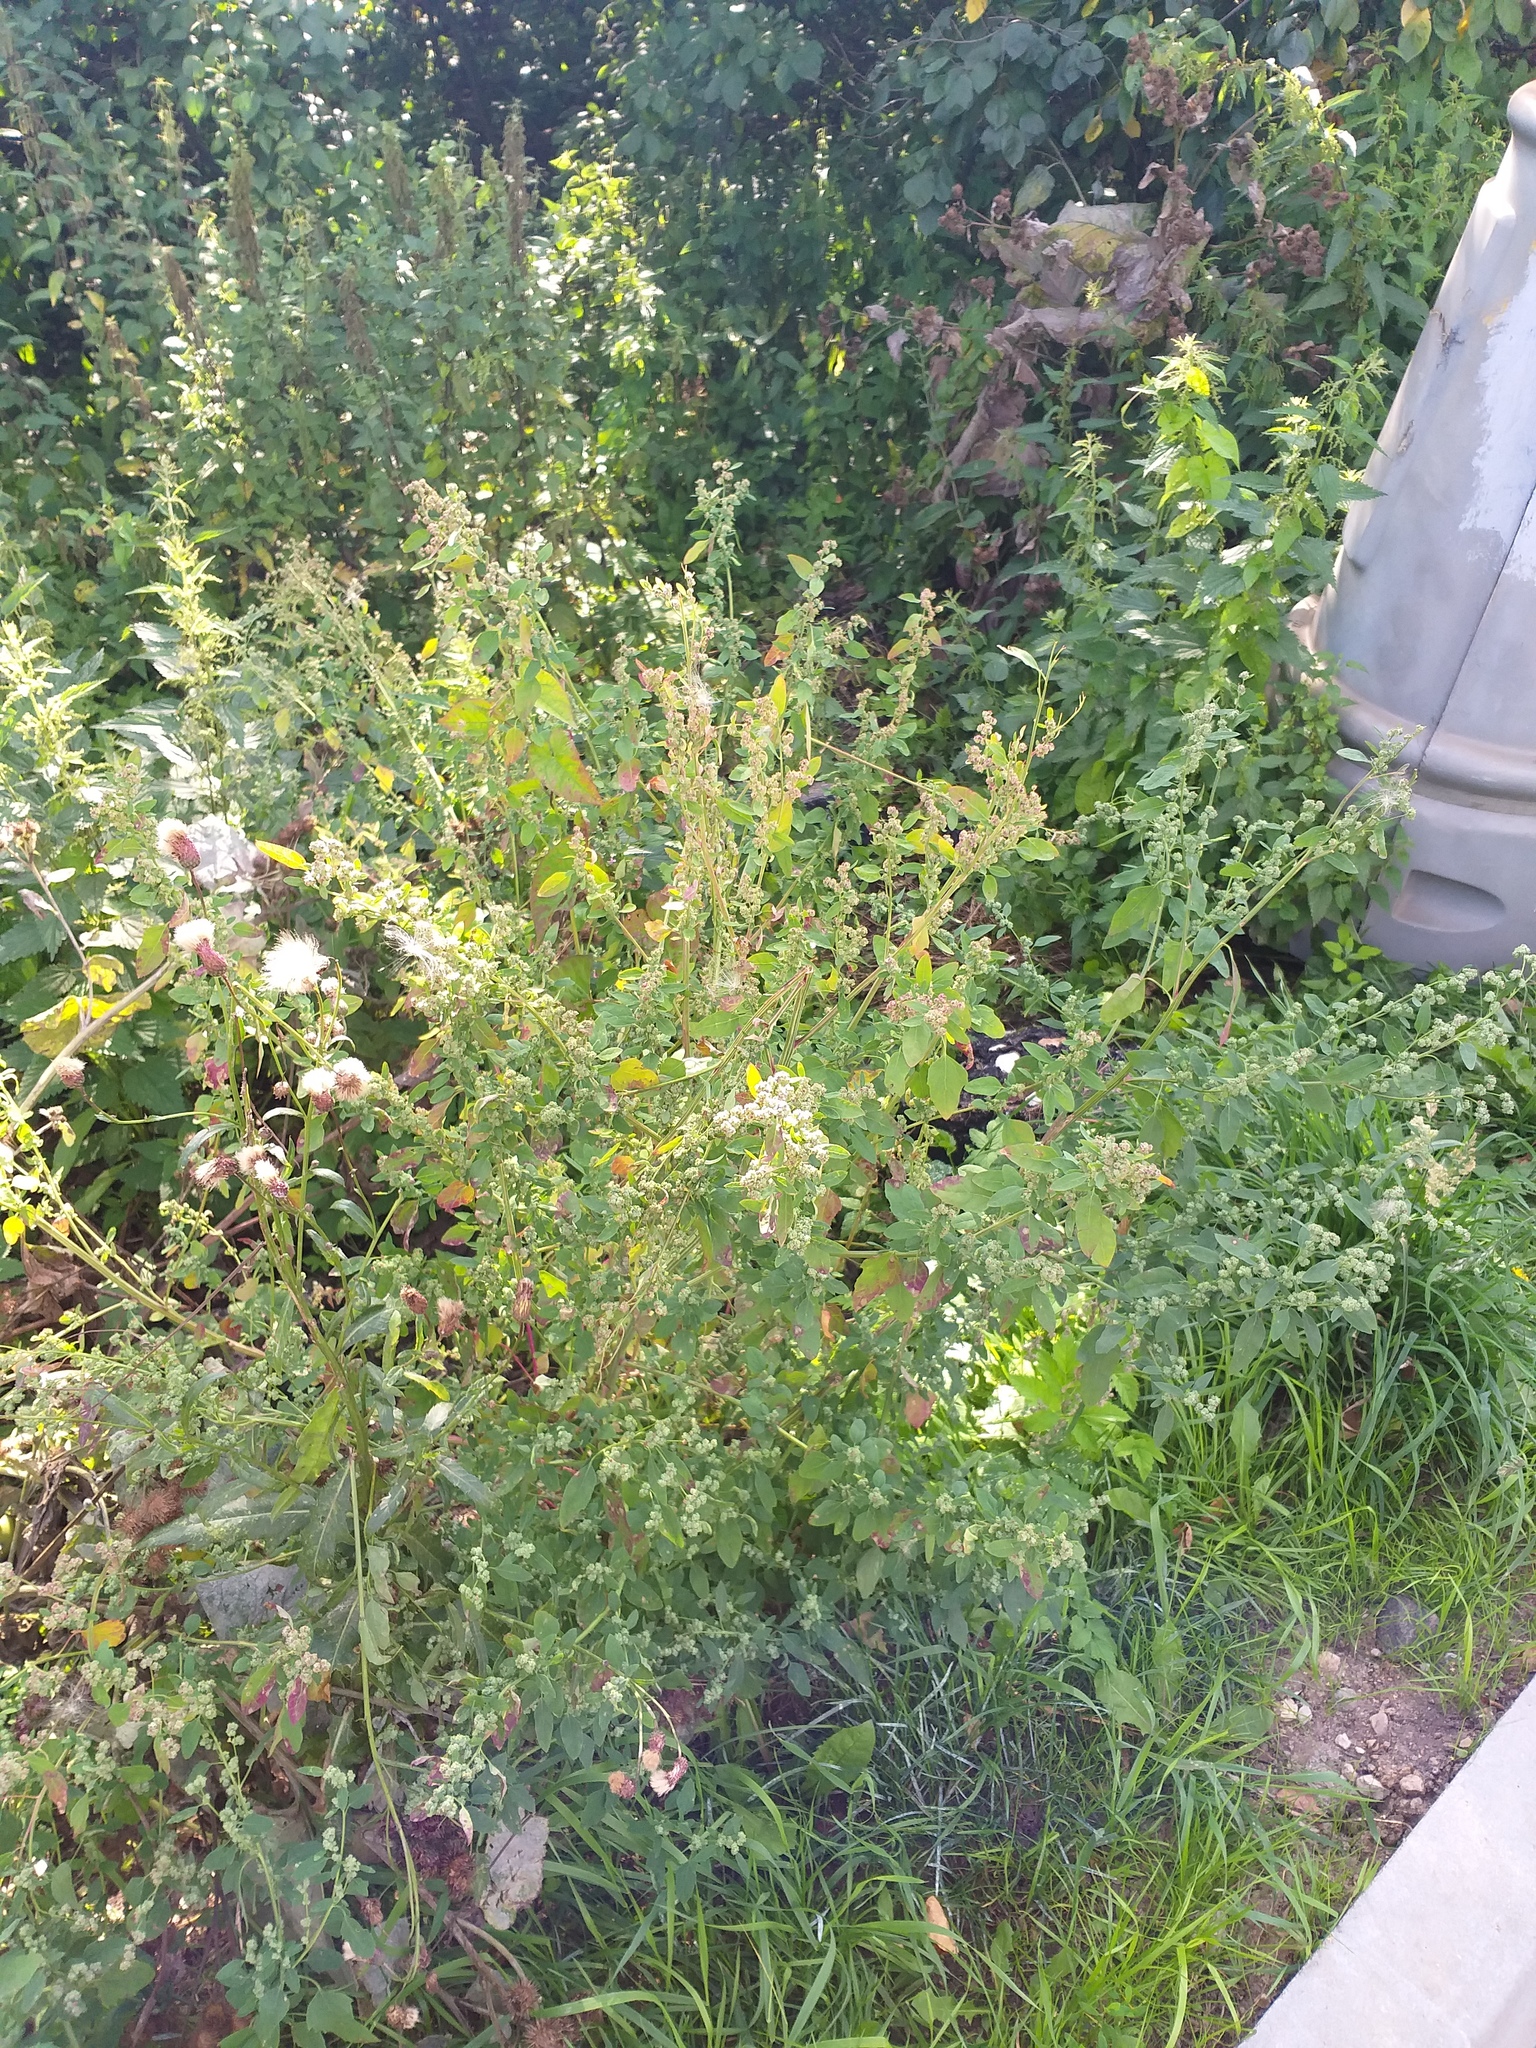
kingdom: Plantae
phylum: Tracheophyta
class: Magnoliopsida
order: Caryophyllales
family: Amaranthaceae
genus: Chenopodium
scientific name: Chenopodium album
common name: Fat-hen
